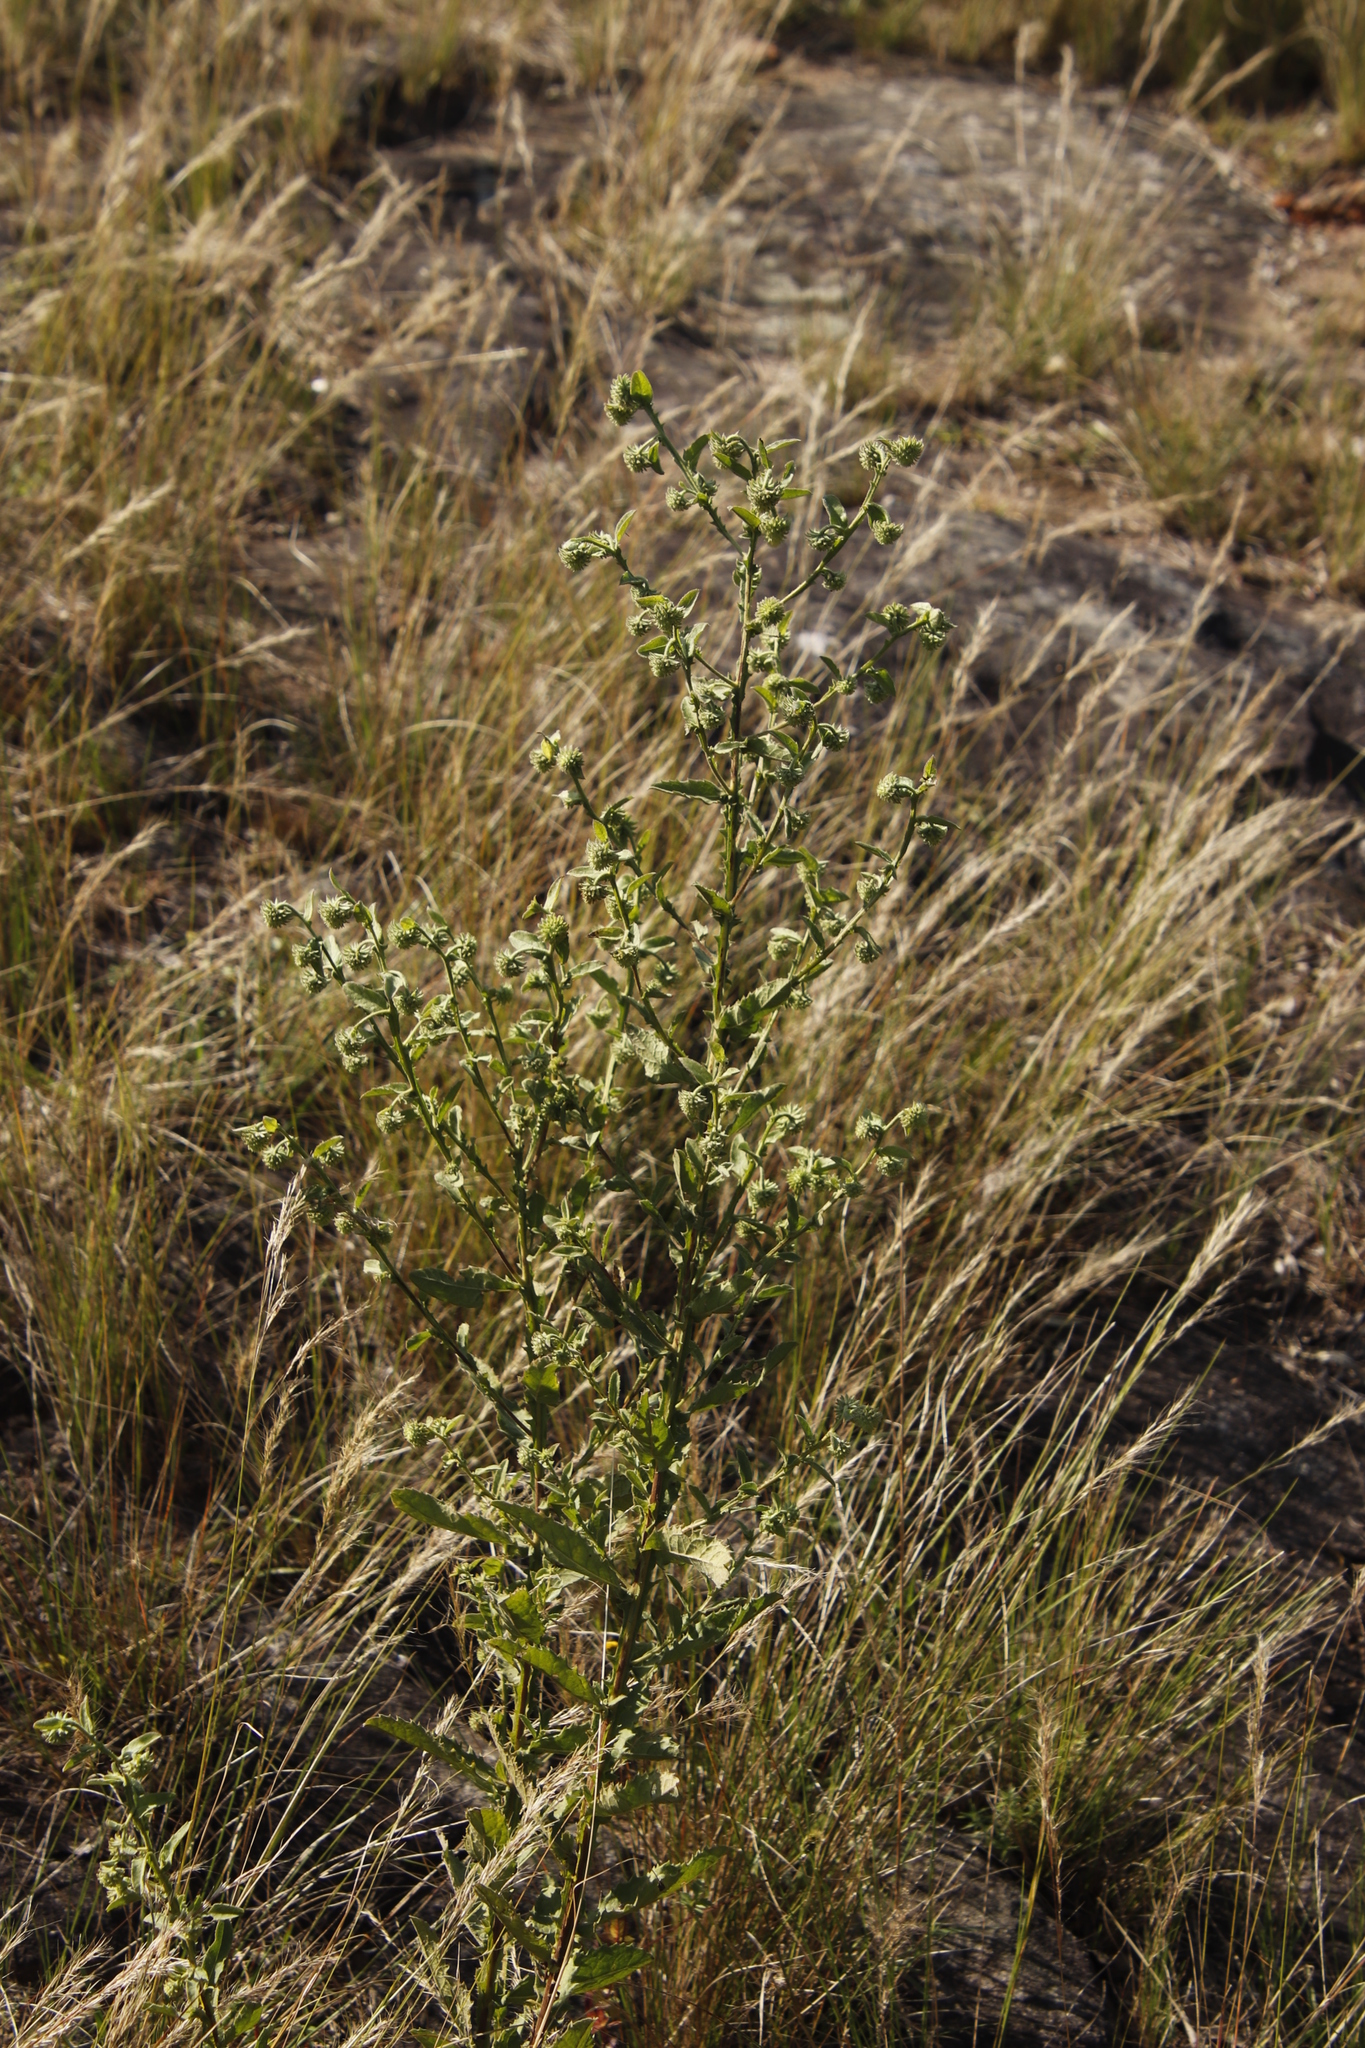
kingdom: Plantae
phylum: Tracheophyta
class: Magnoliopsida
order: Asterales
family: Asteraceae
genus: Laggera
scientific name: Laggera crispata
